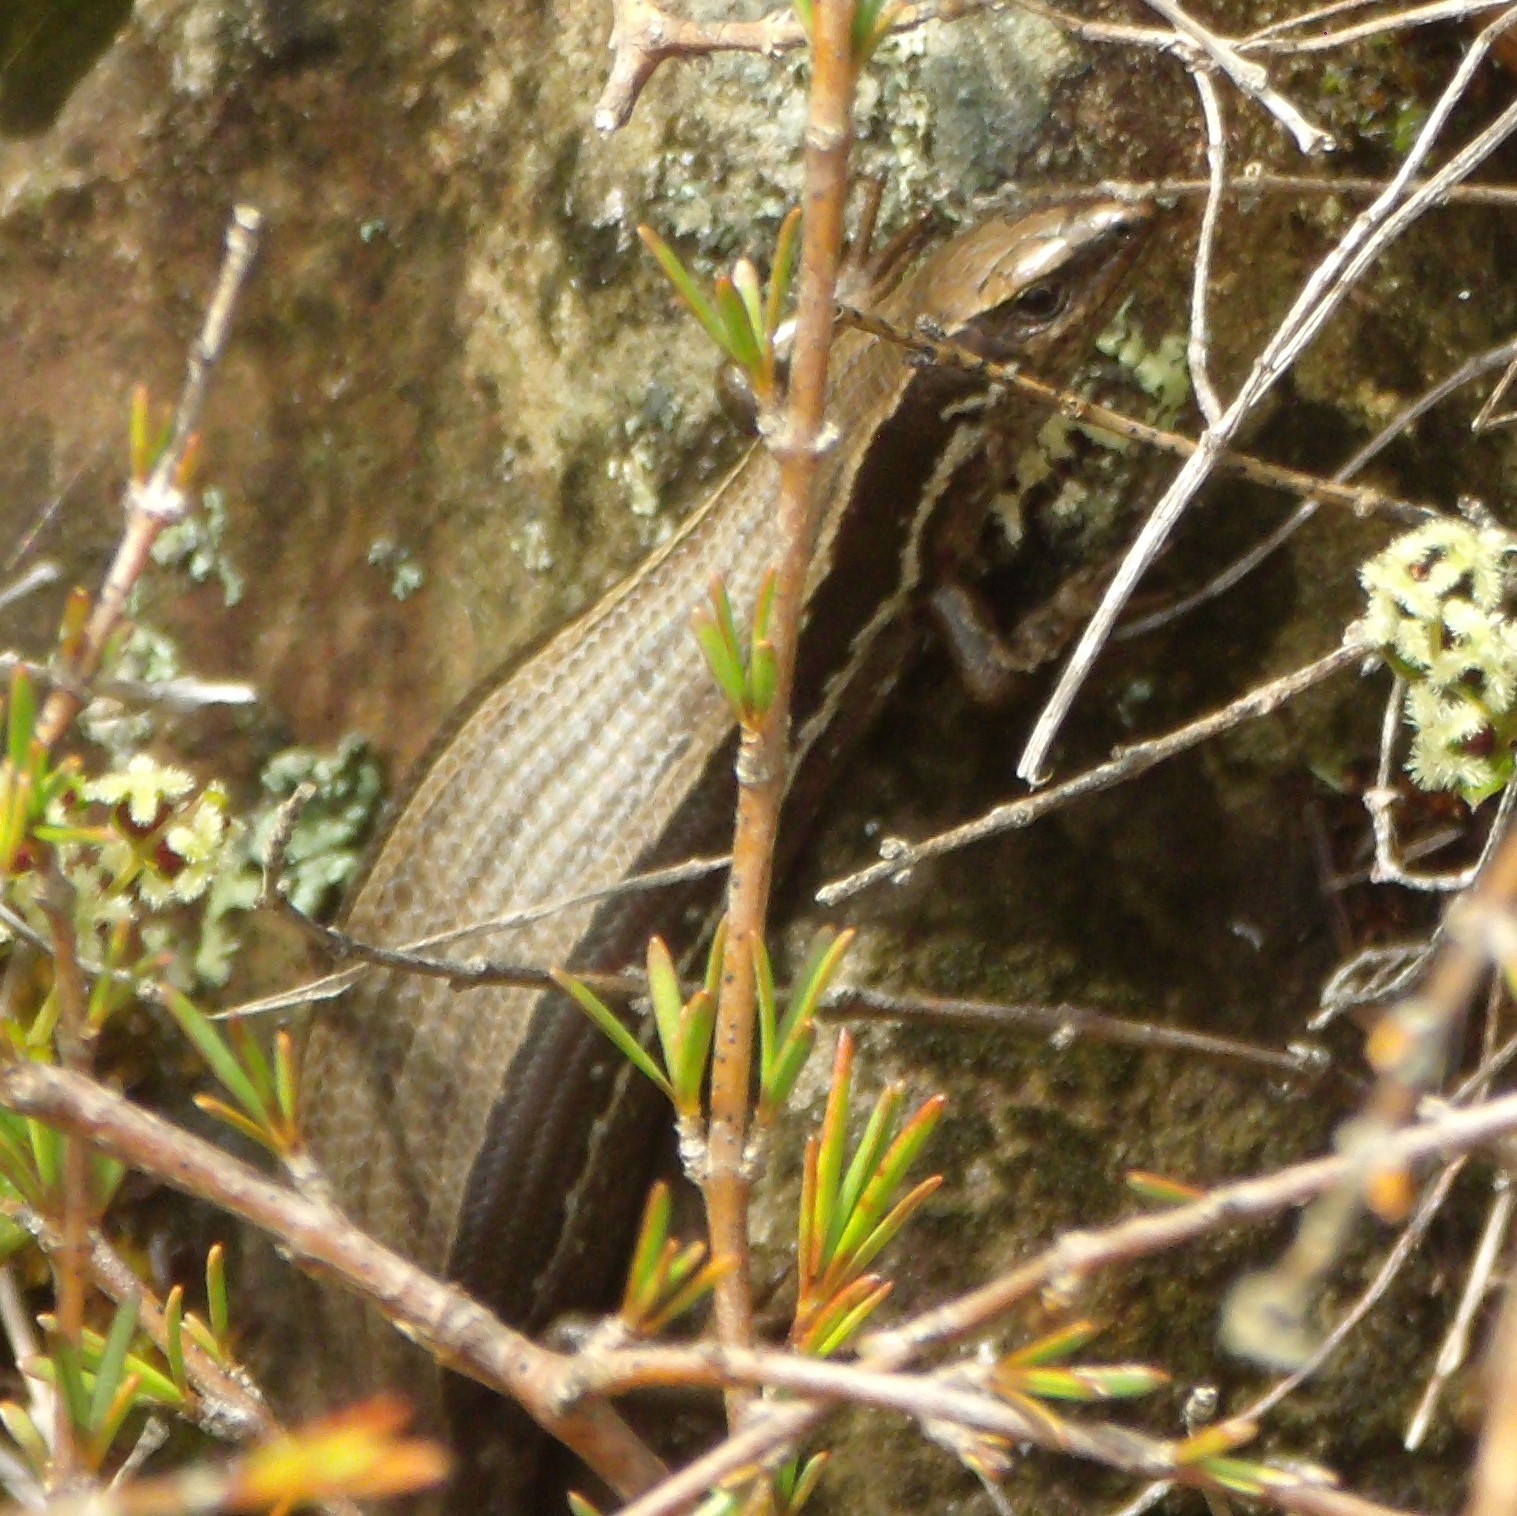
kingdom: Animalia
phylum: Chordata
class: Squamata
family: Scincidae
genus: Oligosoma
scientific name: Oligosoma polychroma
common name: Common new zealand skink
